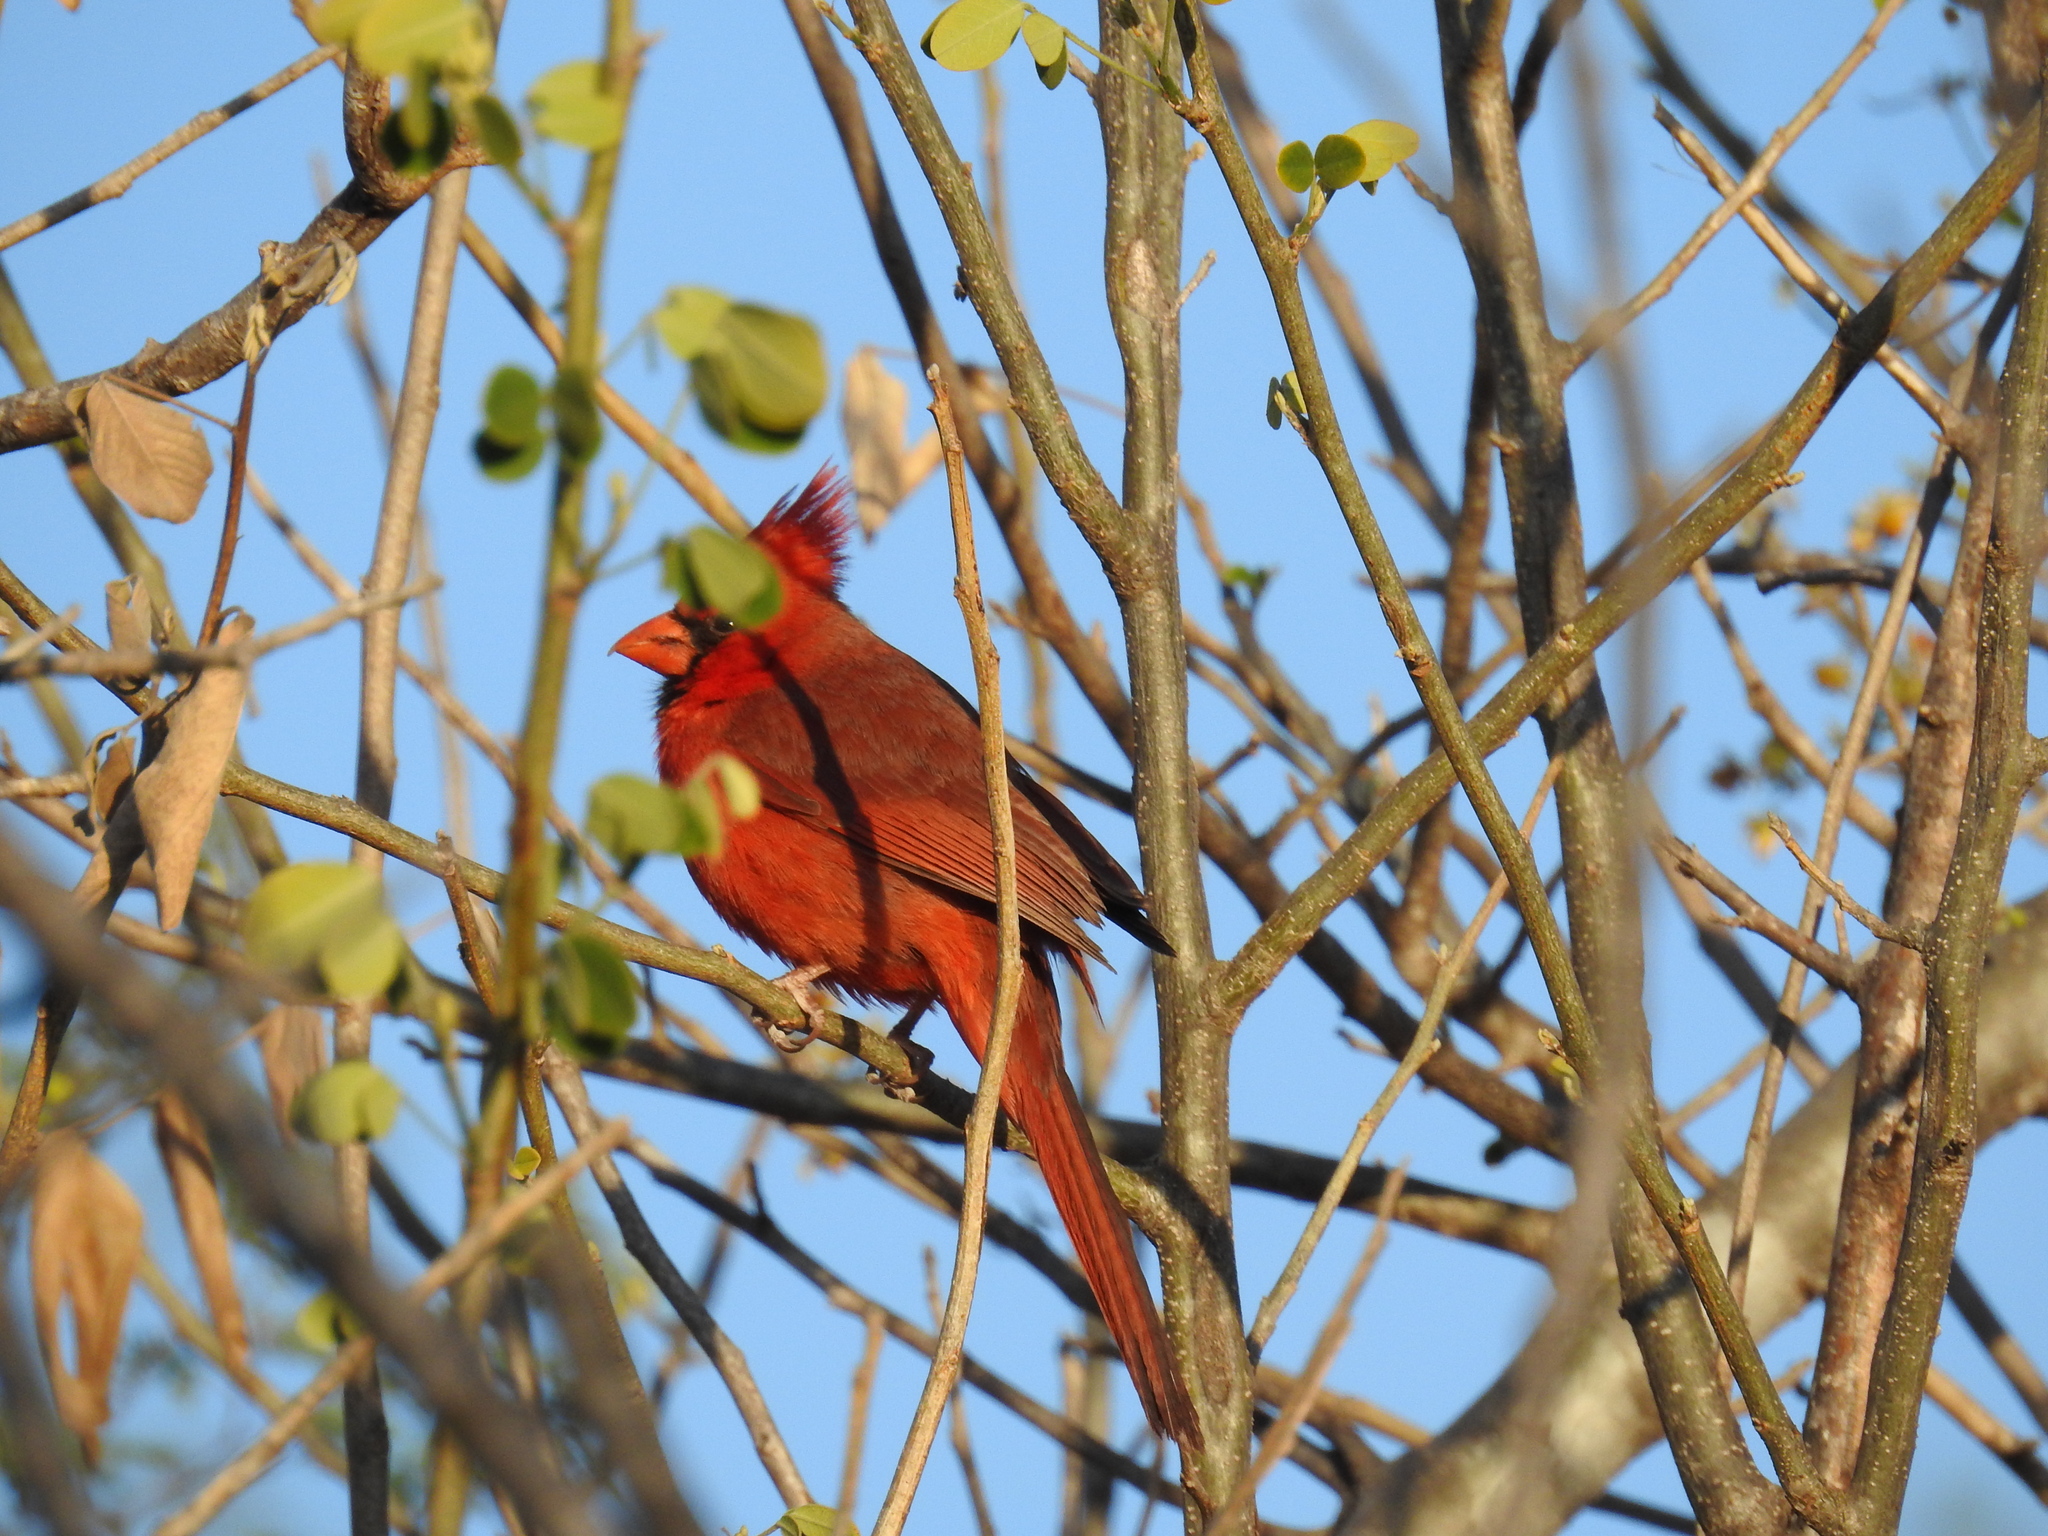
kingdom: Animalia
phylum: Chordata
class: Aves
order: Passeriformes
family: Cardinalidae
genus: Cardinalis
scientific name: Cardinalis cardinalis
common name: Northern cardinal
